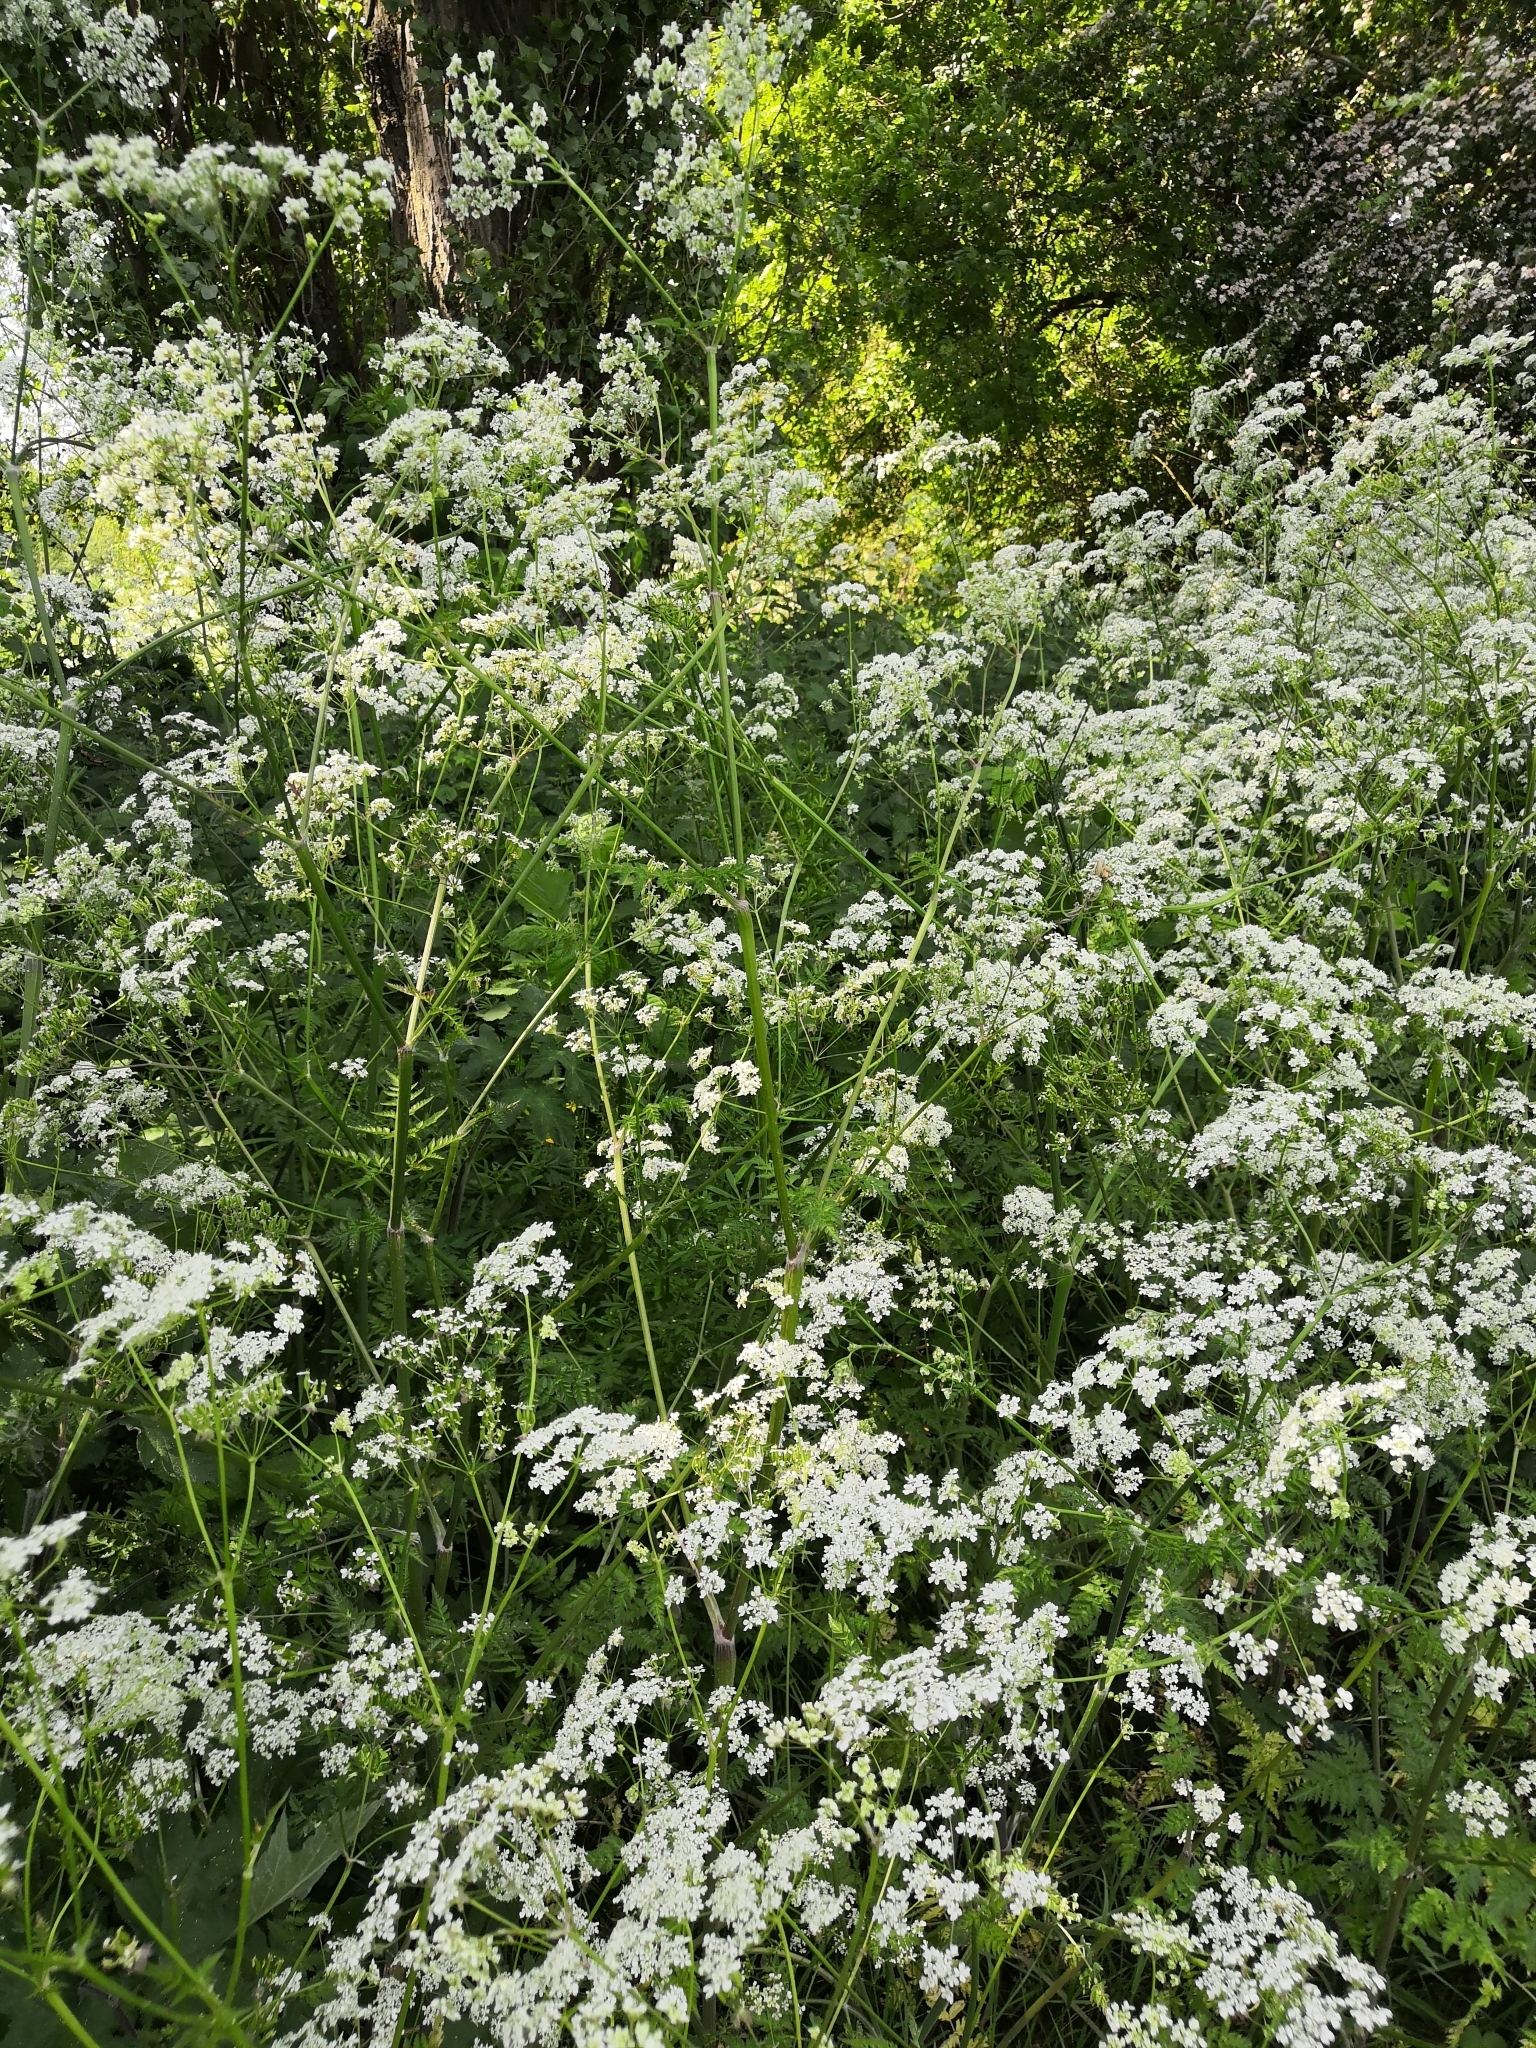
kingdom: Plantae
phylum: Tracheophyta
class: Magnoliopsida
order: Apiales
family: Apiaceae
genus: Anthriscus
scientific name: Anthriscus sylvestris
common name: Cow parsley
